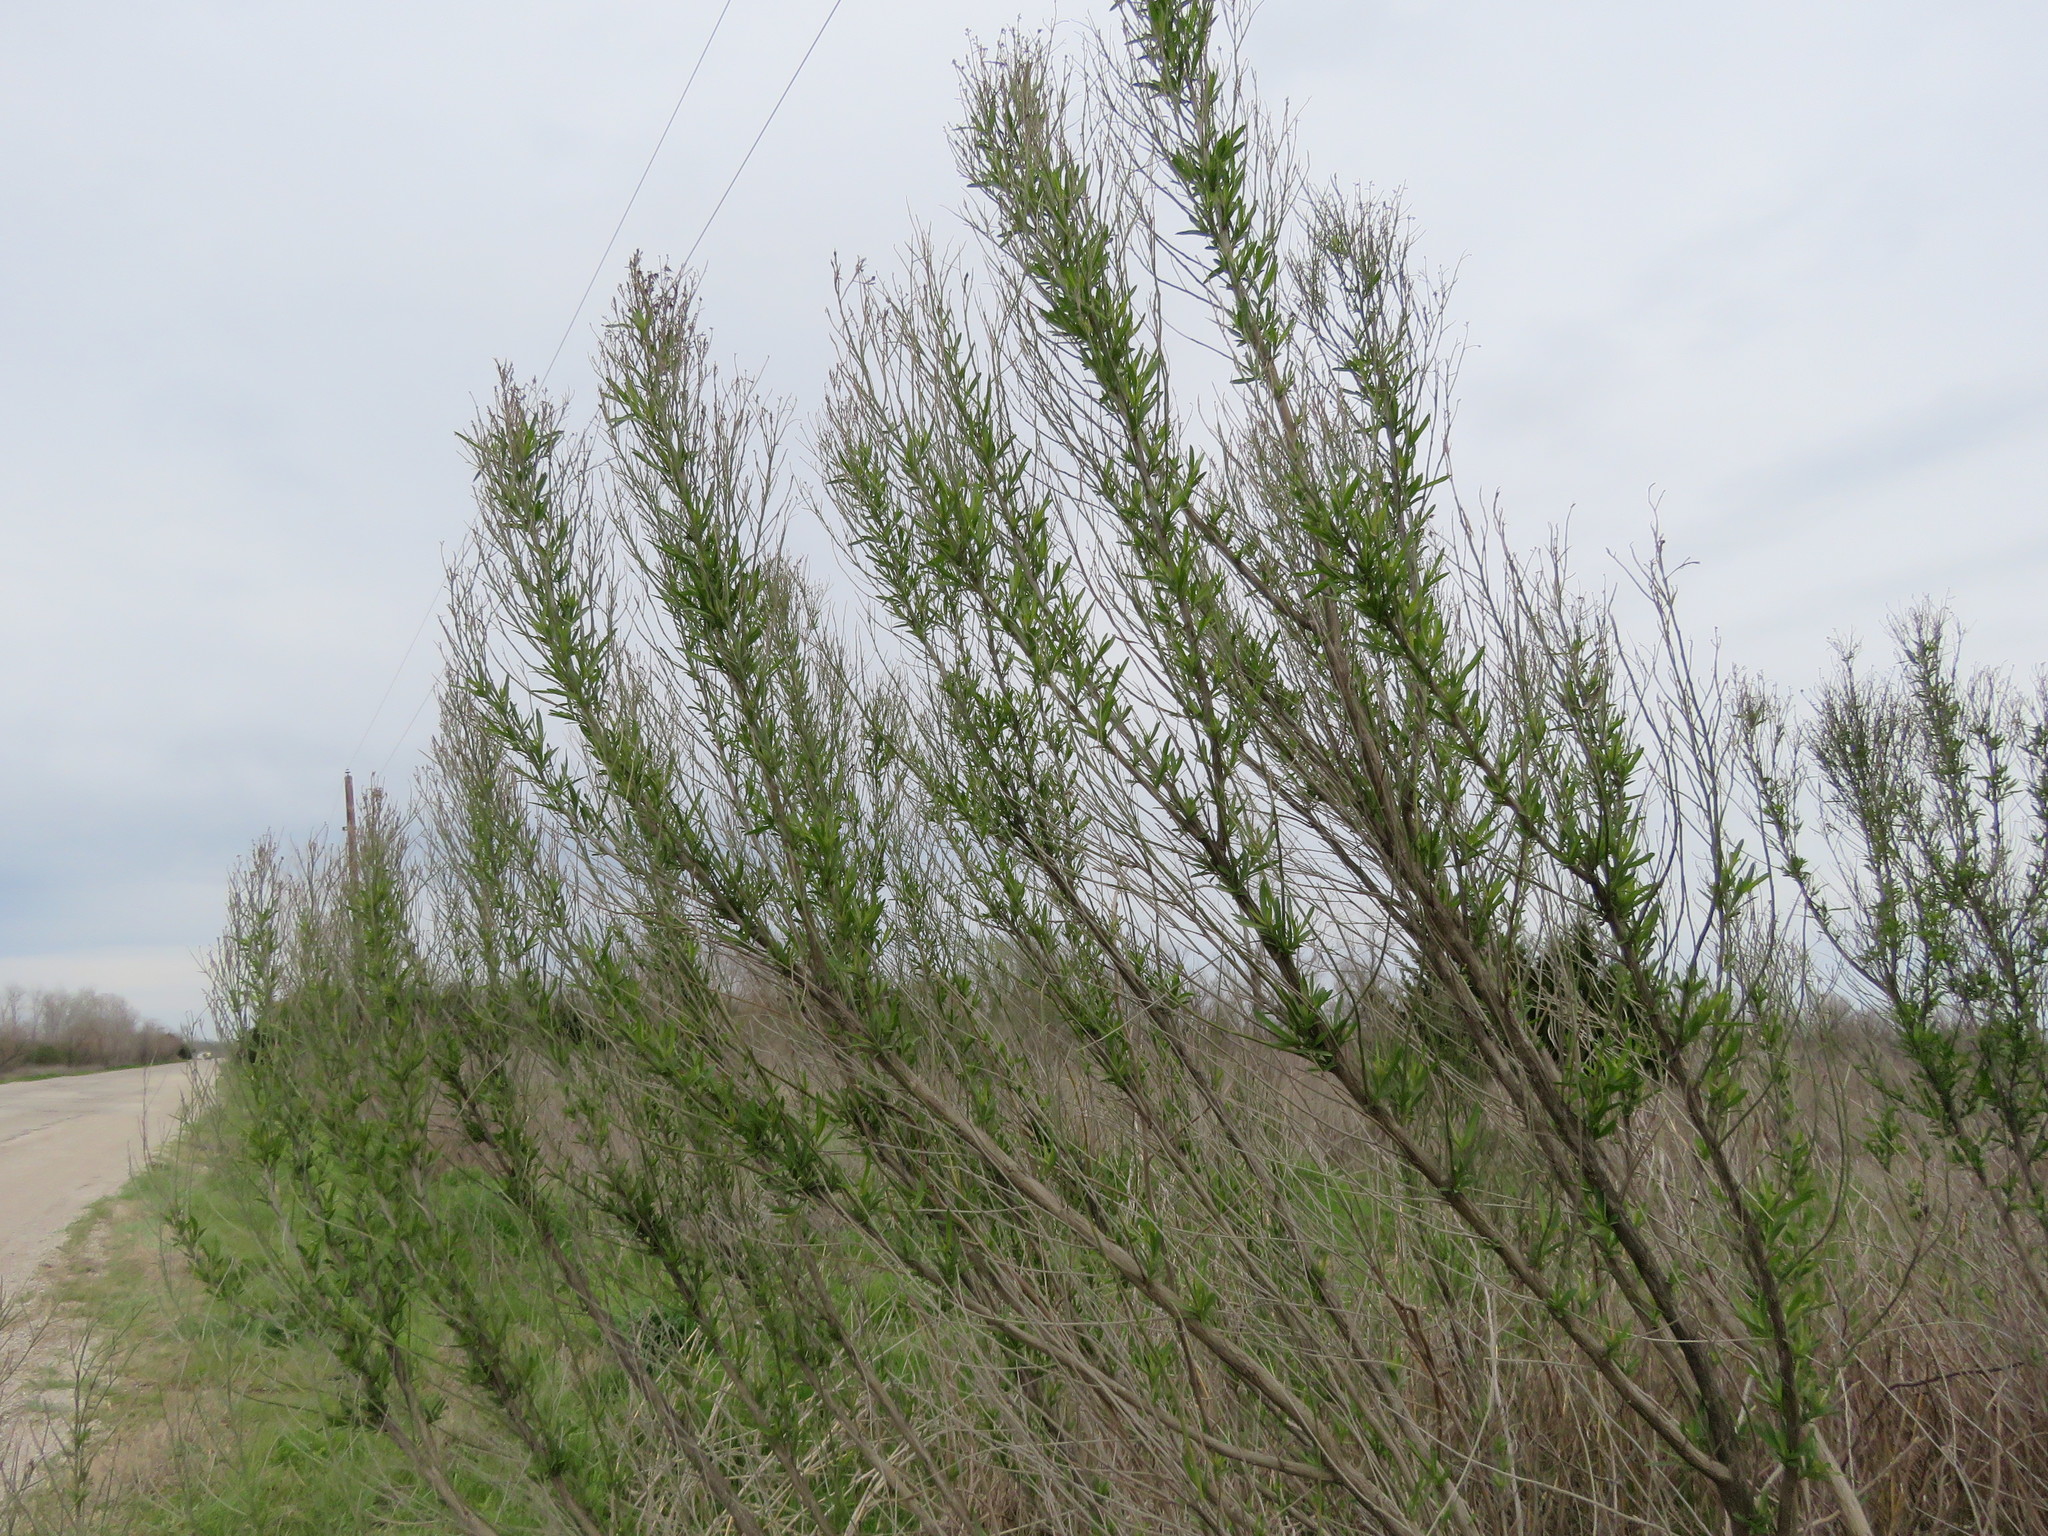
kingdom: Plantae
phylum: Tracheophyta
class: Magnoliopsida
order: Asterales
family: Asteraceae
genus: Baccharis
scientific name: Baccharis neglecta
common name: Roosevelt-weed
